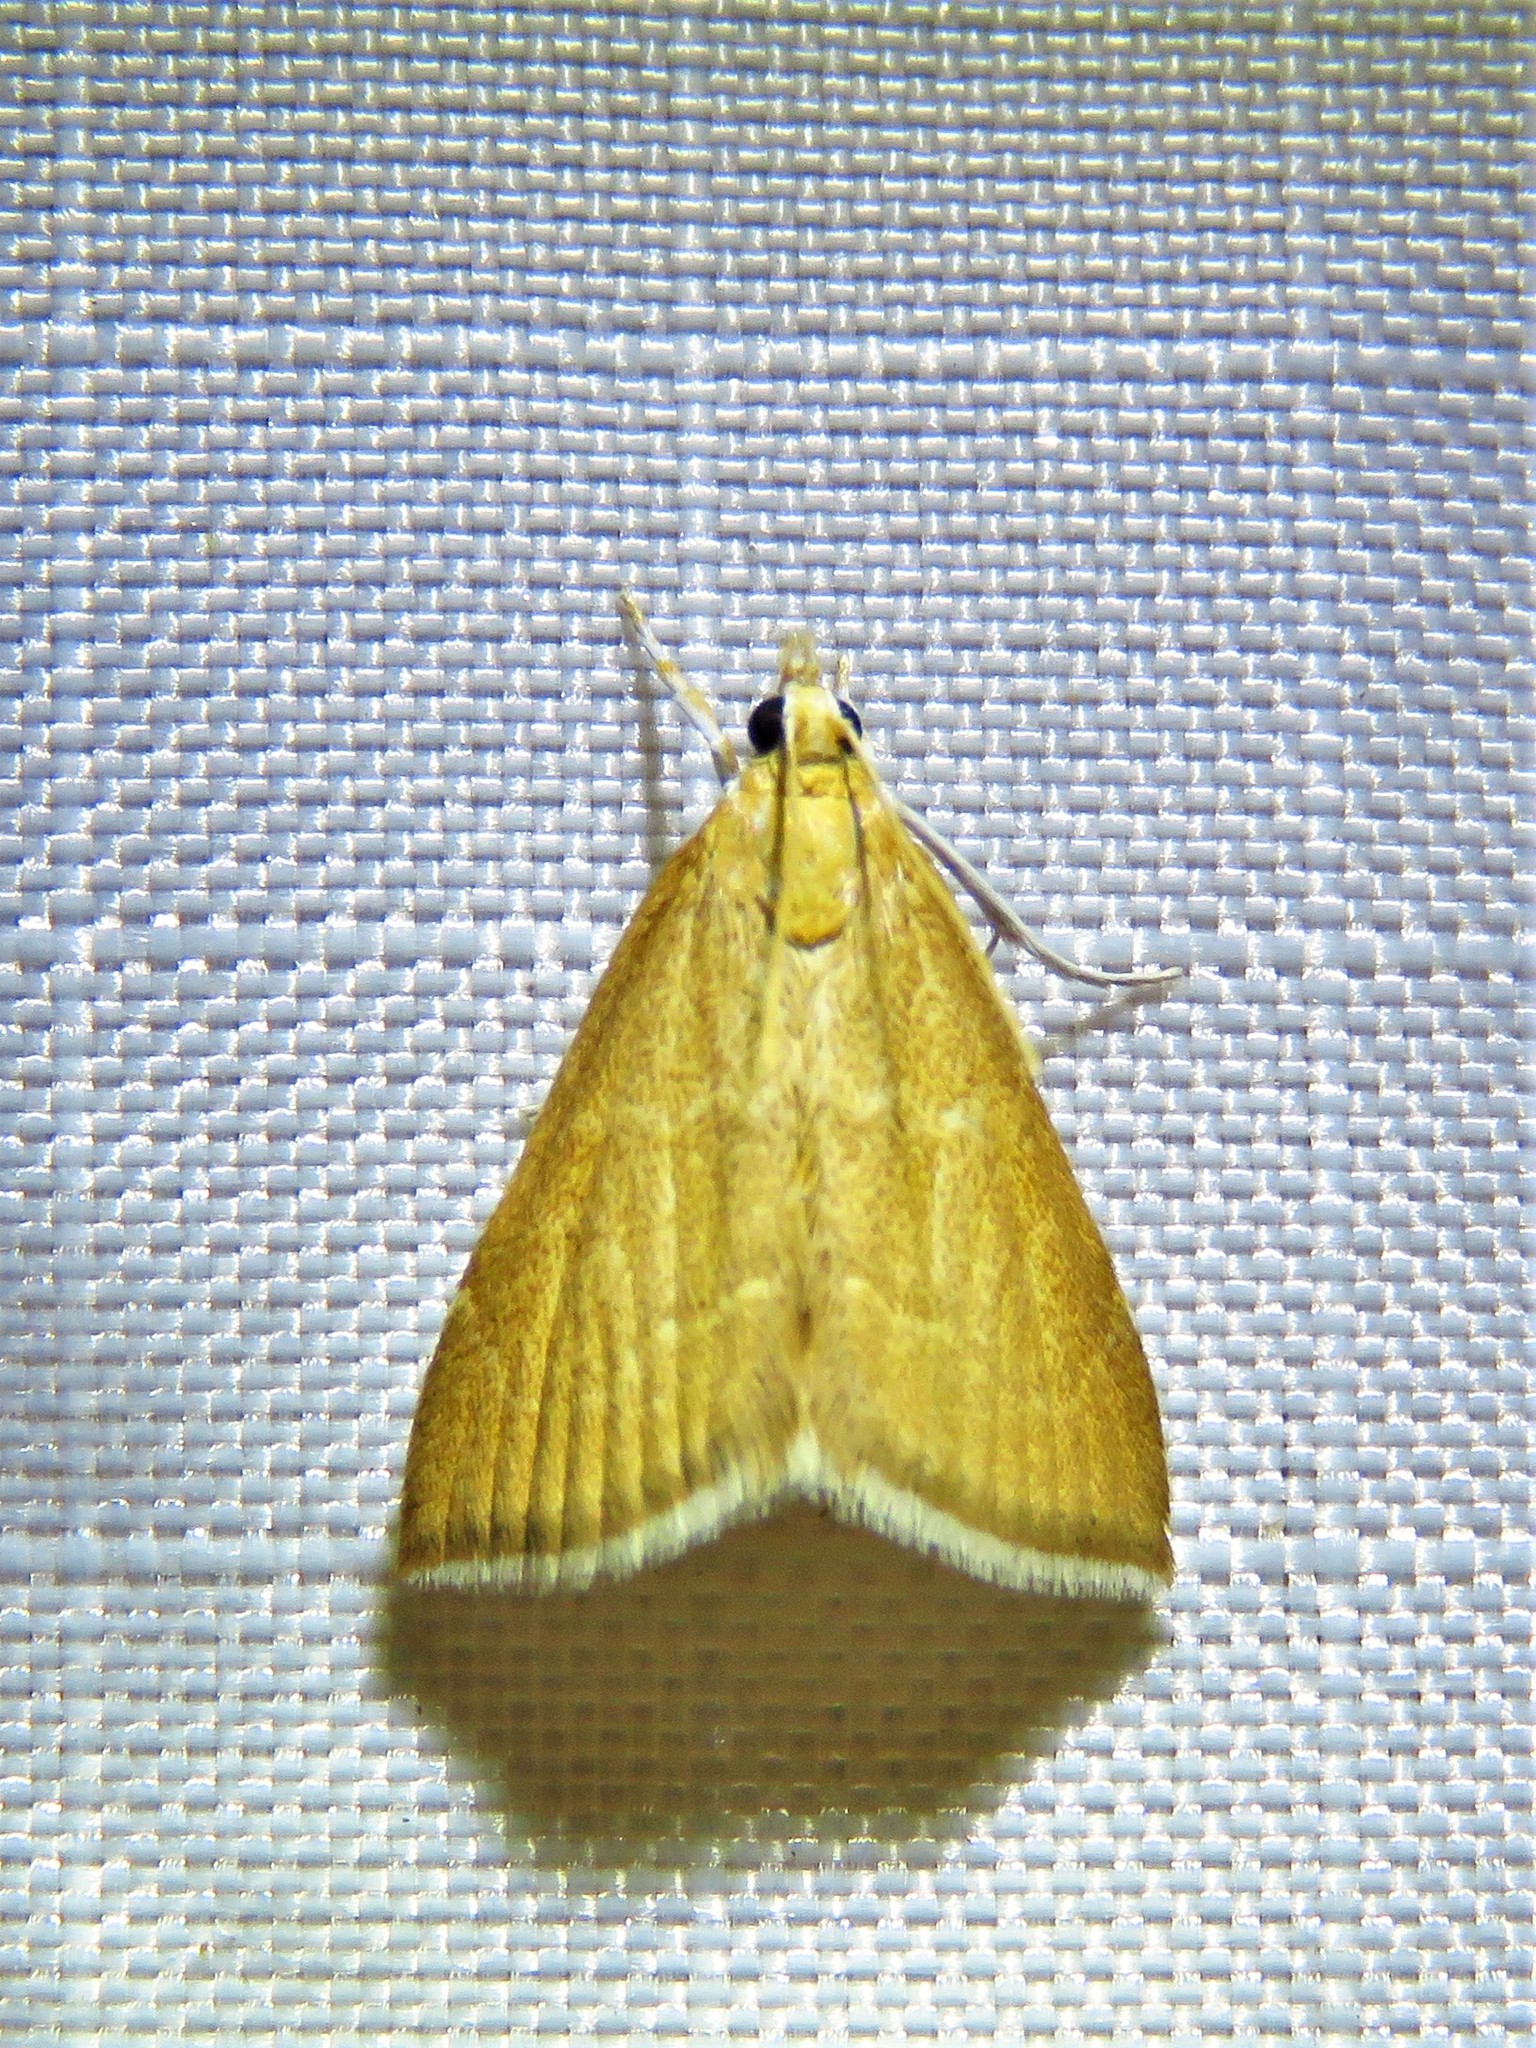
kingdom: Animalia
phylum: Arthropoda
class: Insecta
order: Lepidoptera
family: Crambidae
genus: Glaphyria
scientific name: Glaphyria invisalis
